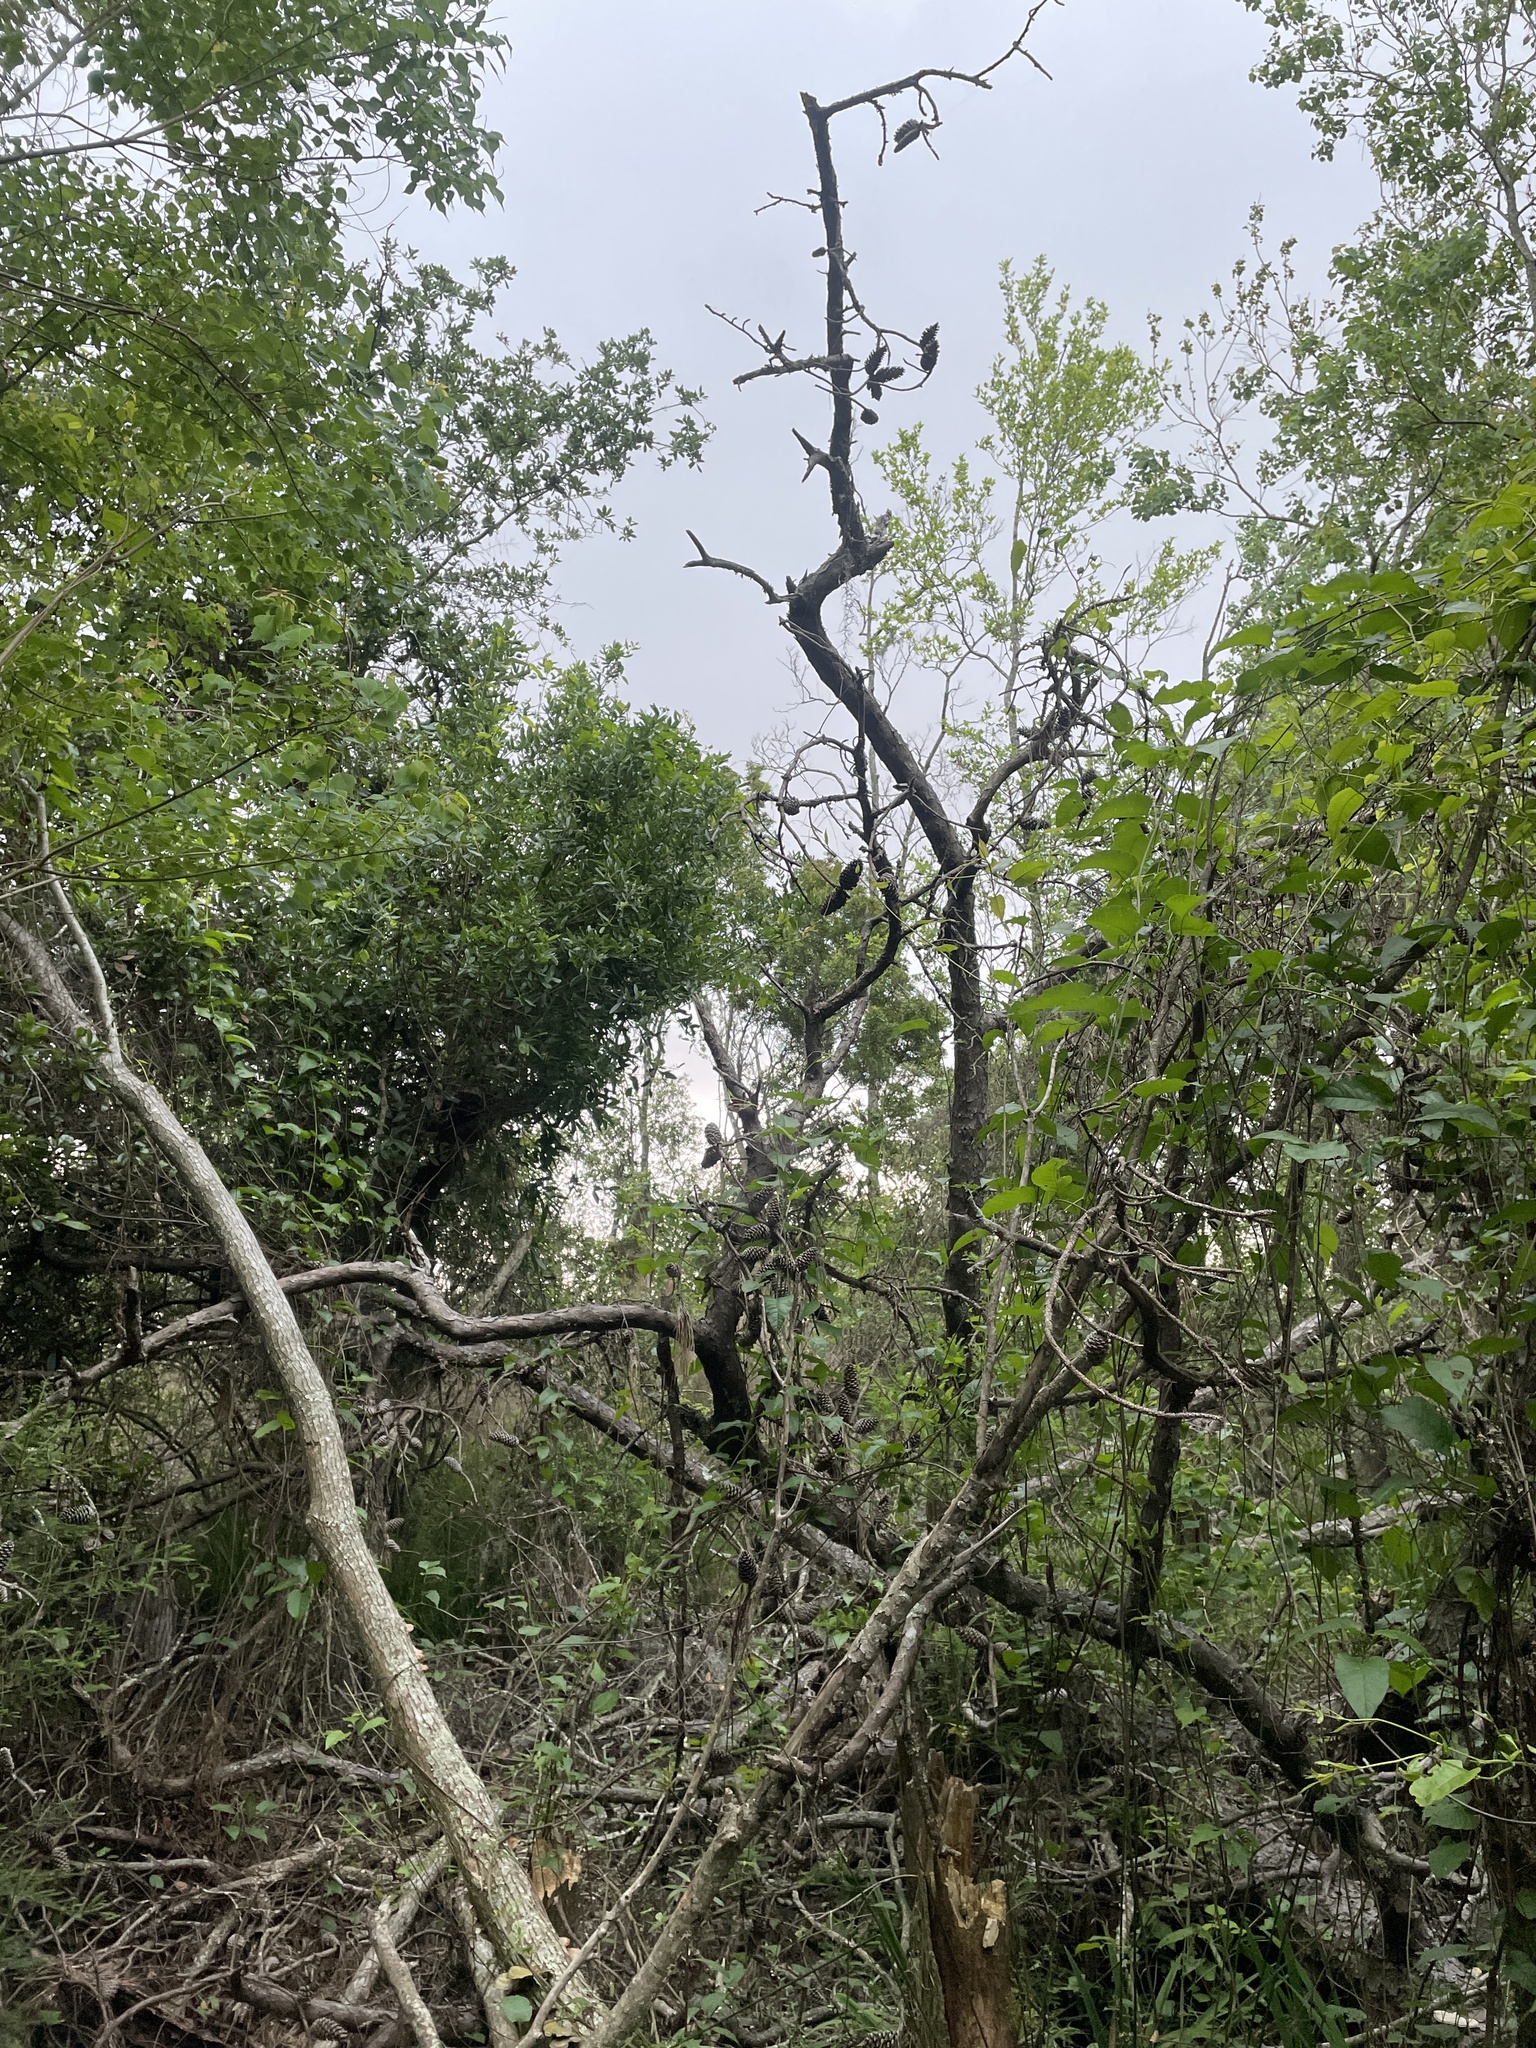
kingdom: Animalia
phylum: Chordata
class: Aves
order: Passeriformes
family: Turdidae
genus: Hylocichla
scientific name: Hylocichla mustelina
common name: Wood thrush
